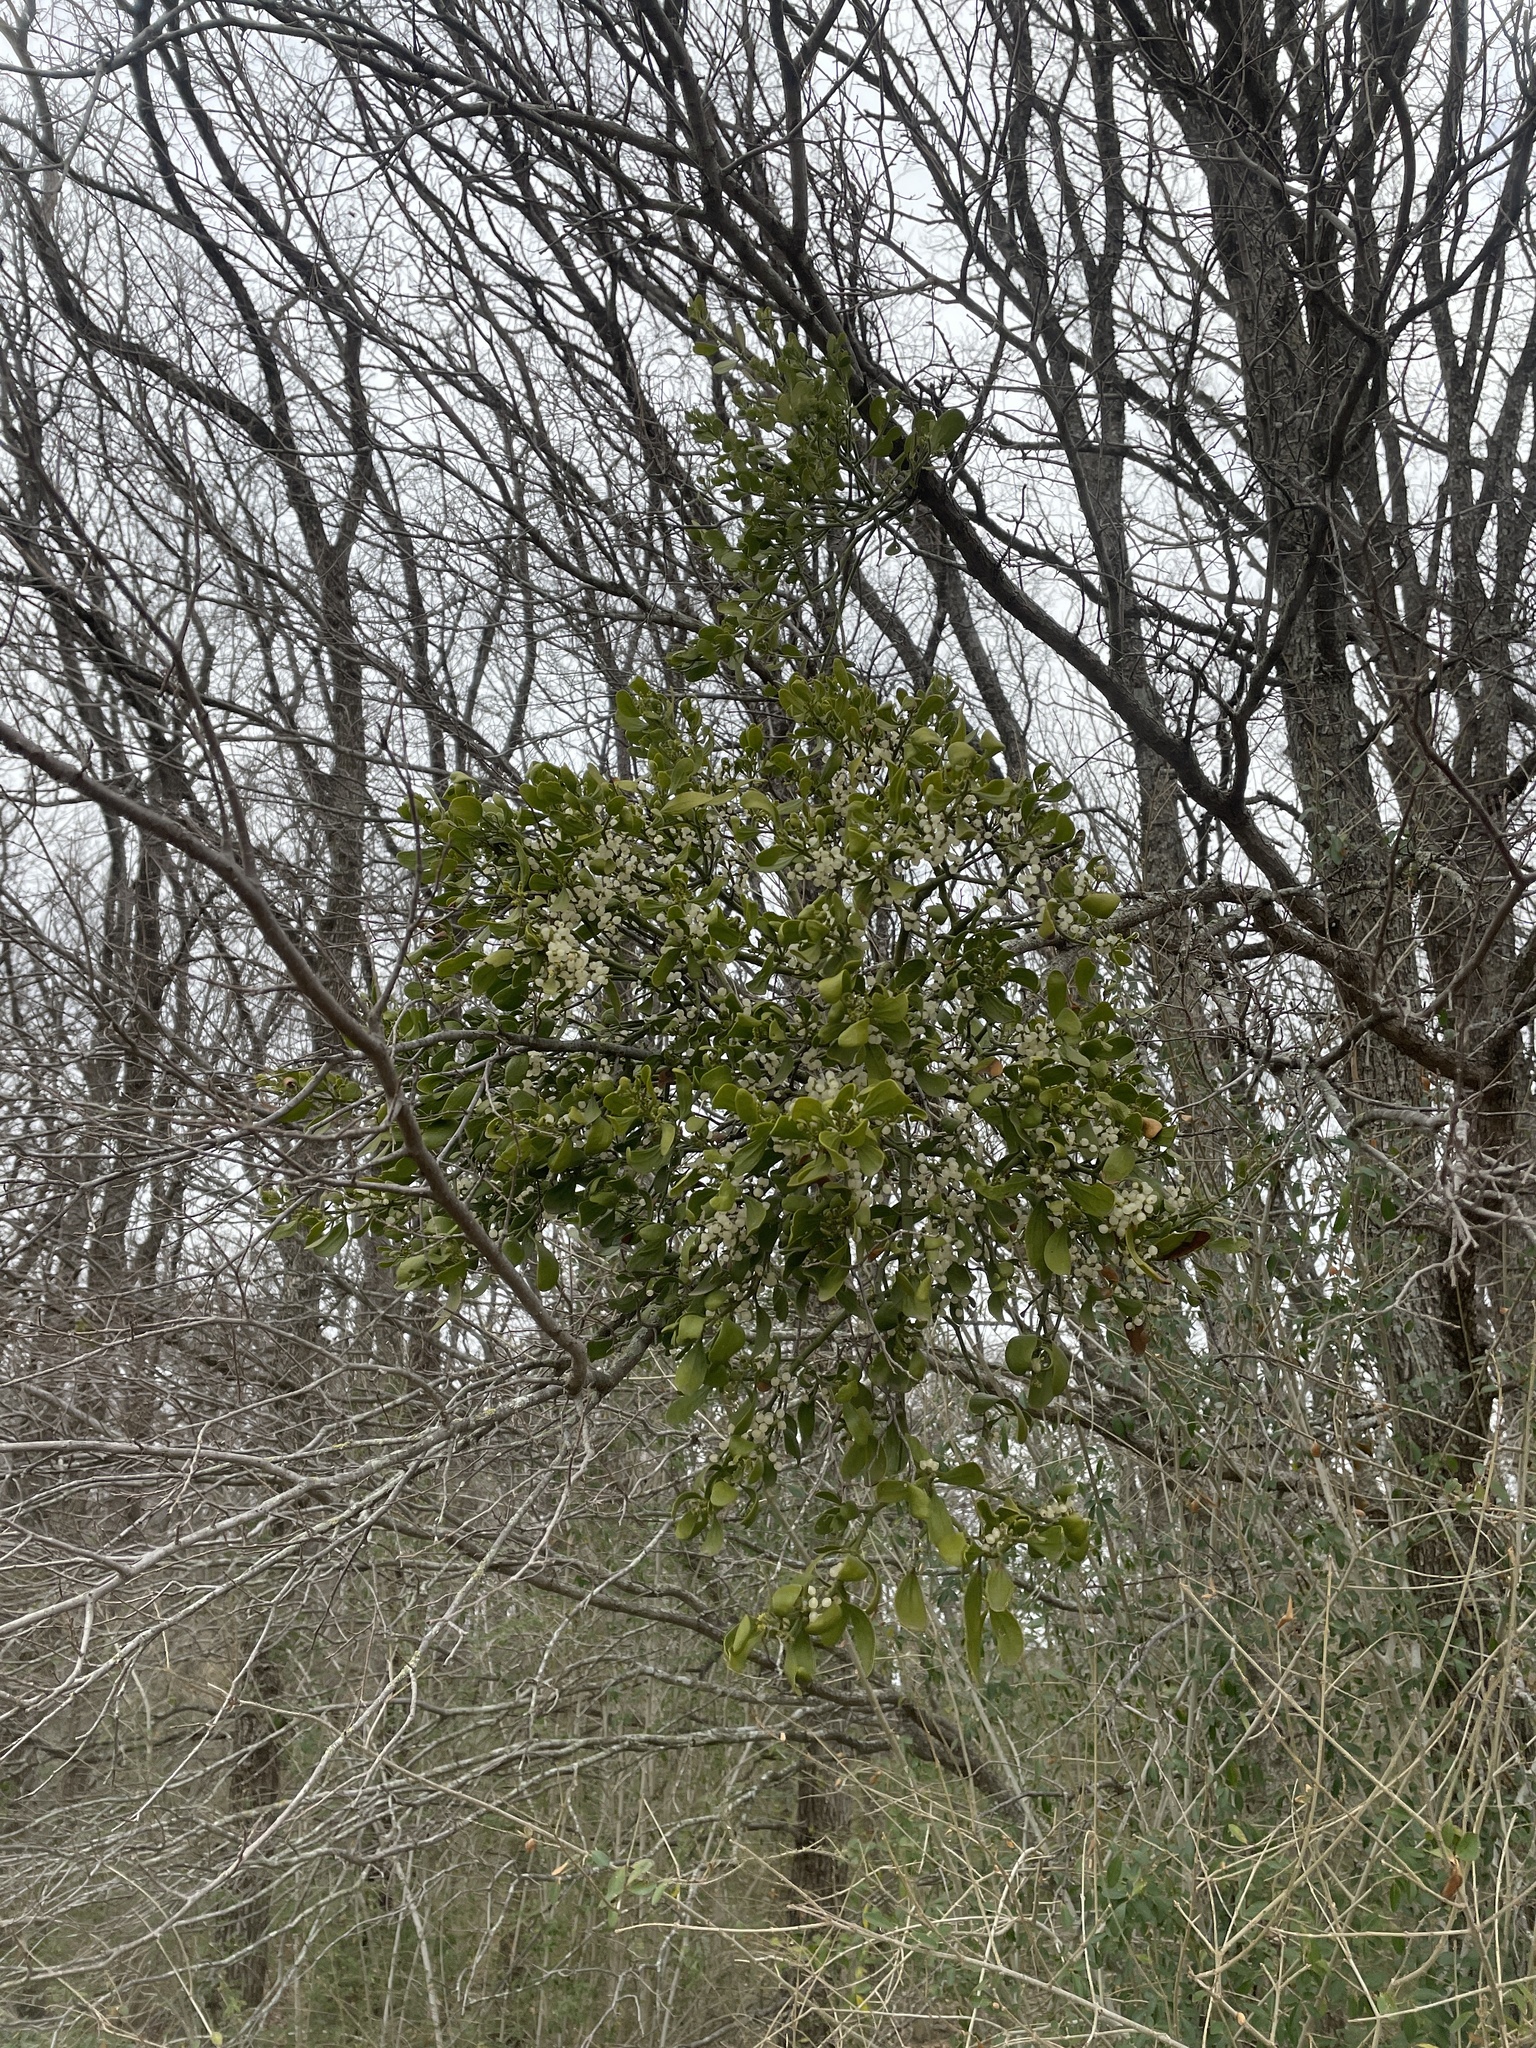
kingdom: Plantae
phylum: Tracheophyta
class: Magnoliopsida
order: Santalales
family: Viscaceae
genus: Phoradendron
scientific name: Phoradendron leucarpum
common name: Pacific mistletoe
